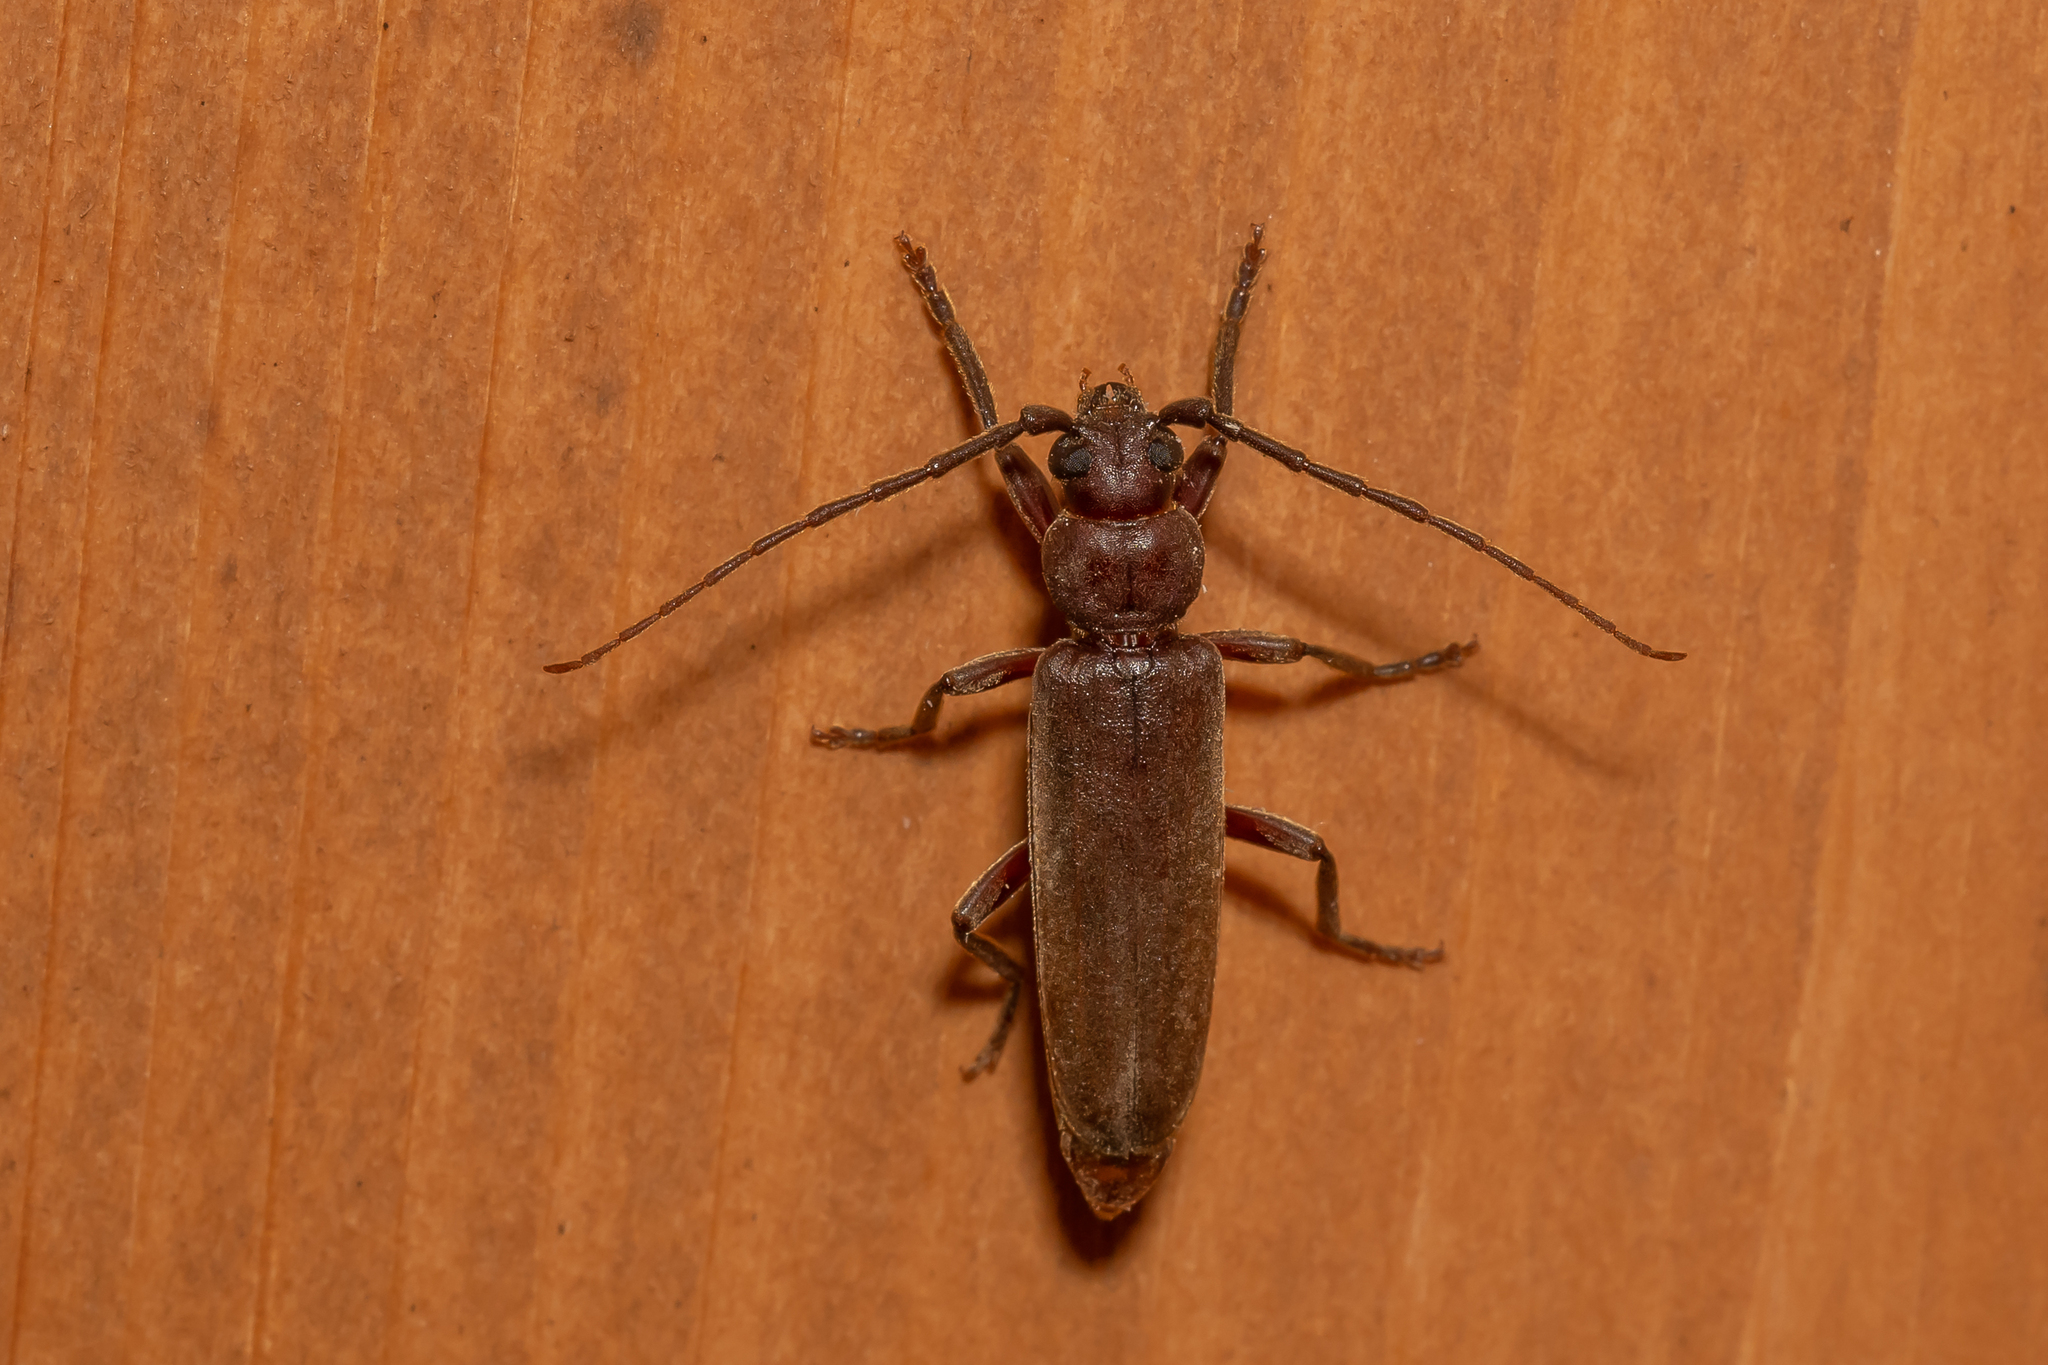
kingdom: Animalia
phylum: Arthropoda
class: Insecta
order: Coleoptera
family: Cerambycidae
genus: Arhopalus
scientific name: Arhopalus rusticus
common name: Rust pine borer
